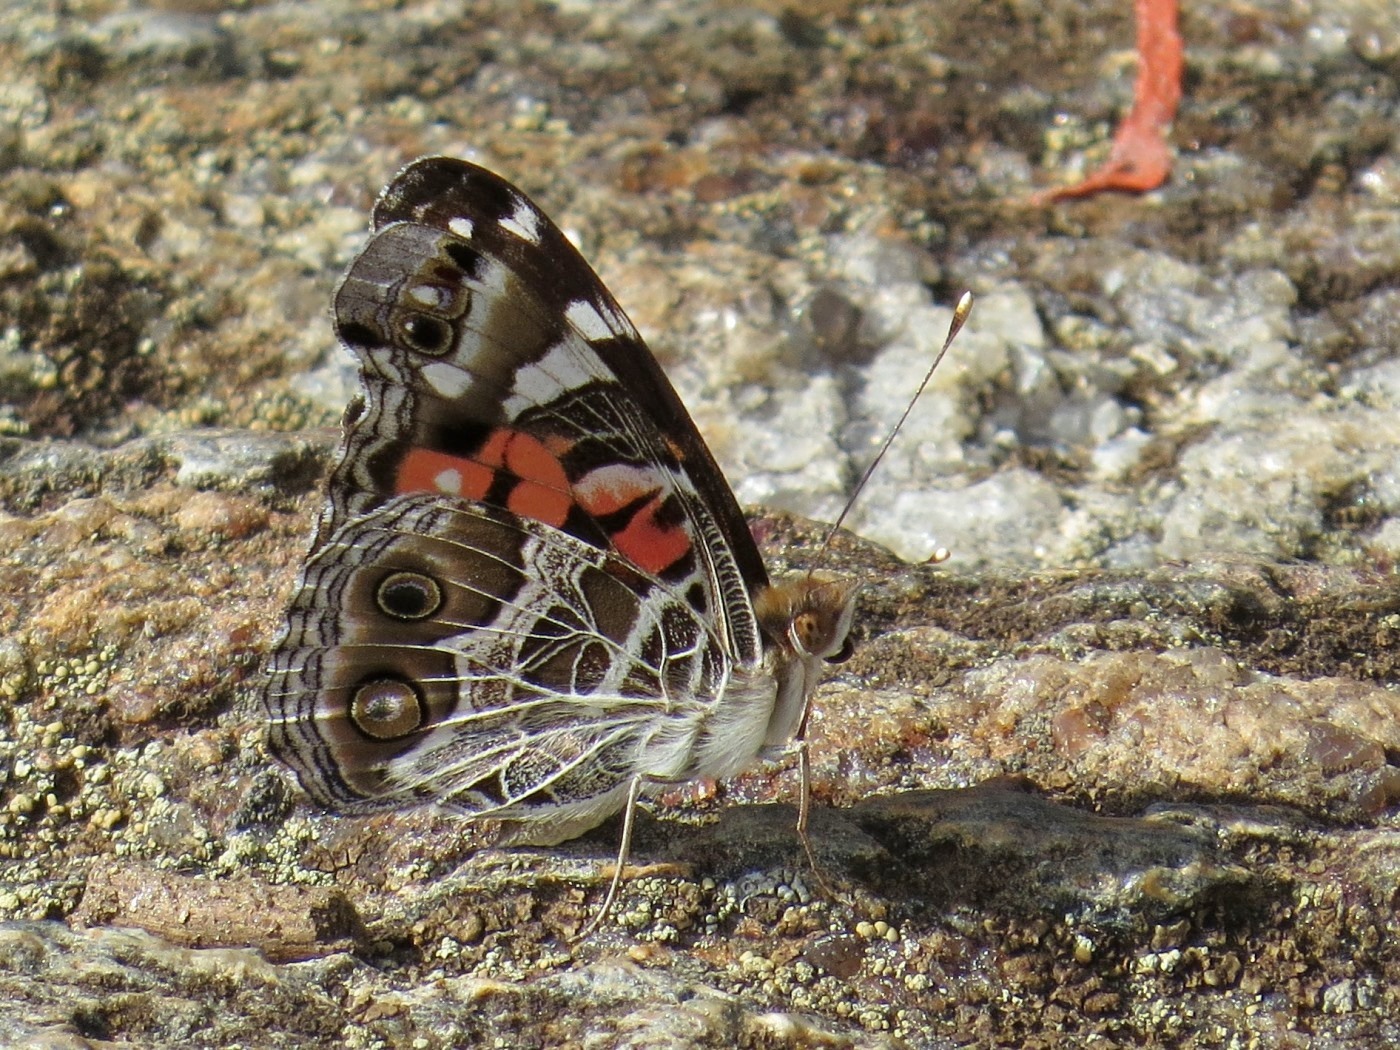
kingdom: Animalia
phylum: Arthropoda
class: Insecta
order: Lepidoptera
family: Nymphalidae
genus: Vanessa
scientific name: Vanessa virginiensis
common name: American lady
